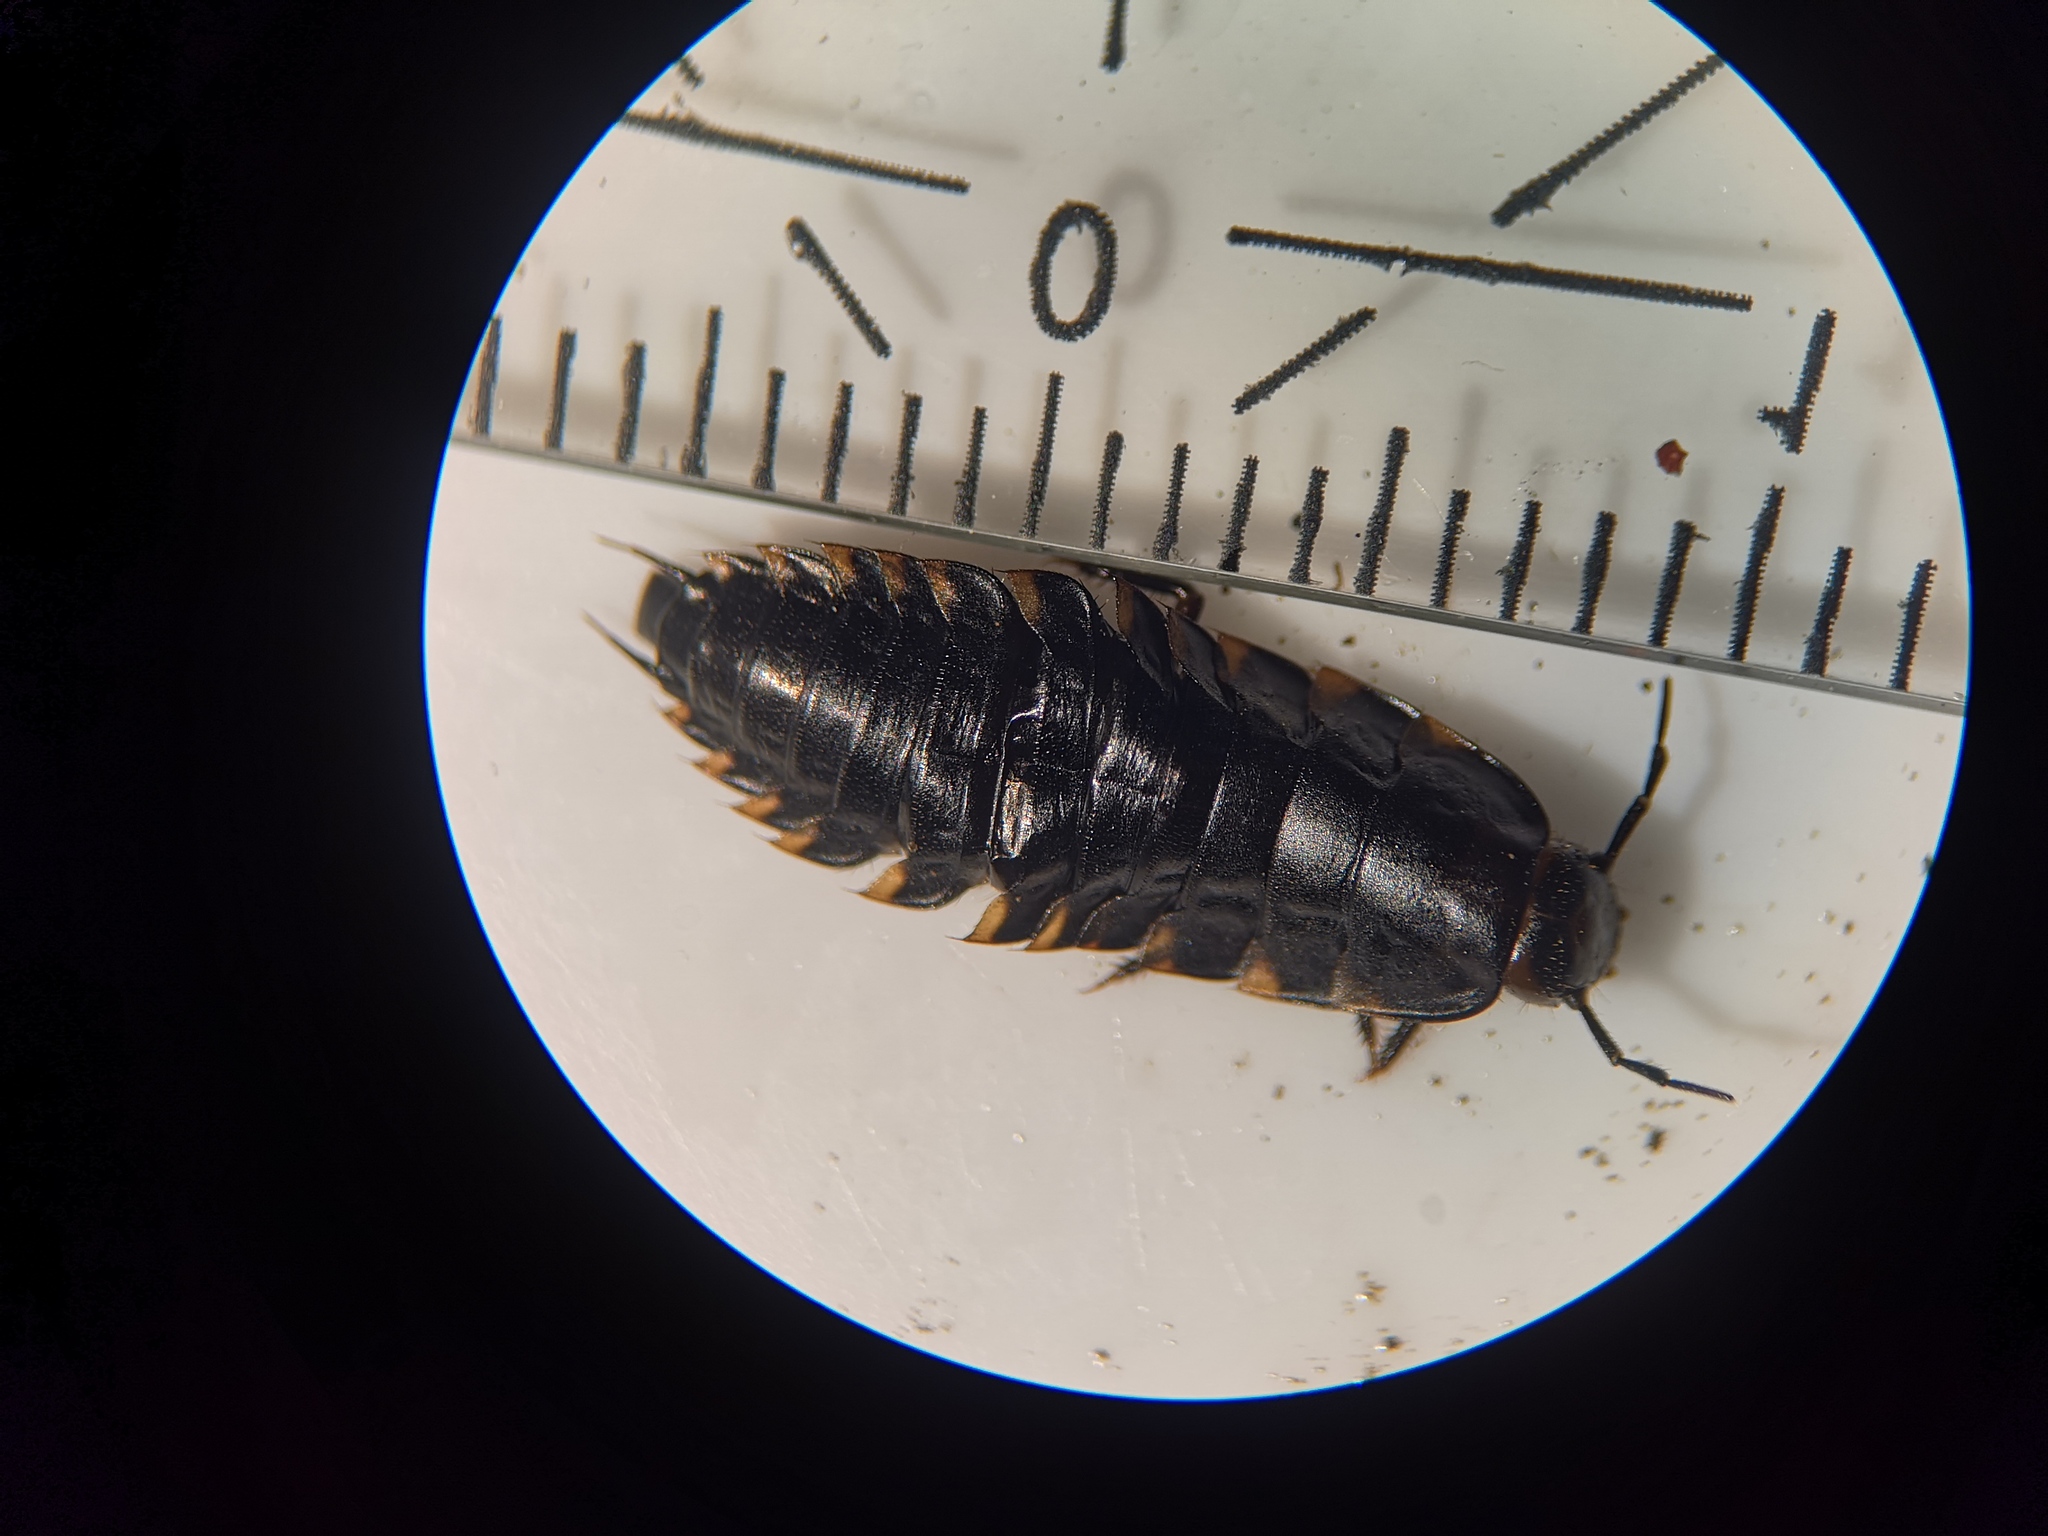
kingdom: Animalia
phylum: Arthropoda
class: Insecta
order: Coleoptera
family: Staphylinidae
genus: Silpha
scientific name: Silpha tristis
